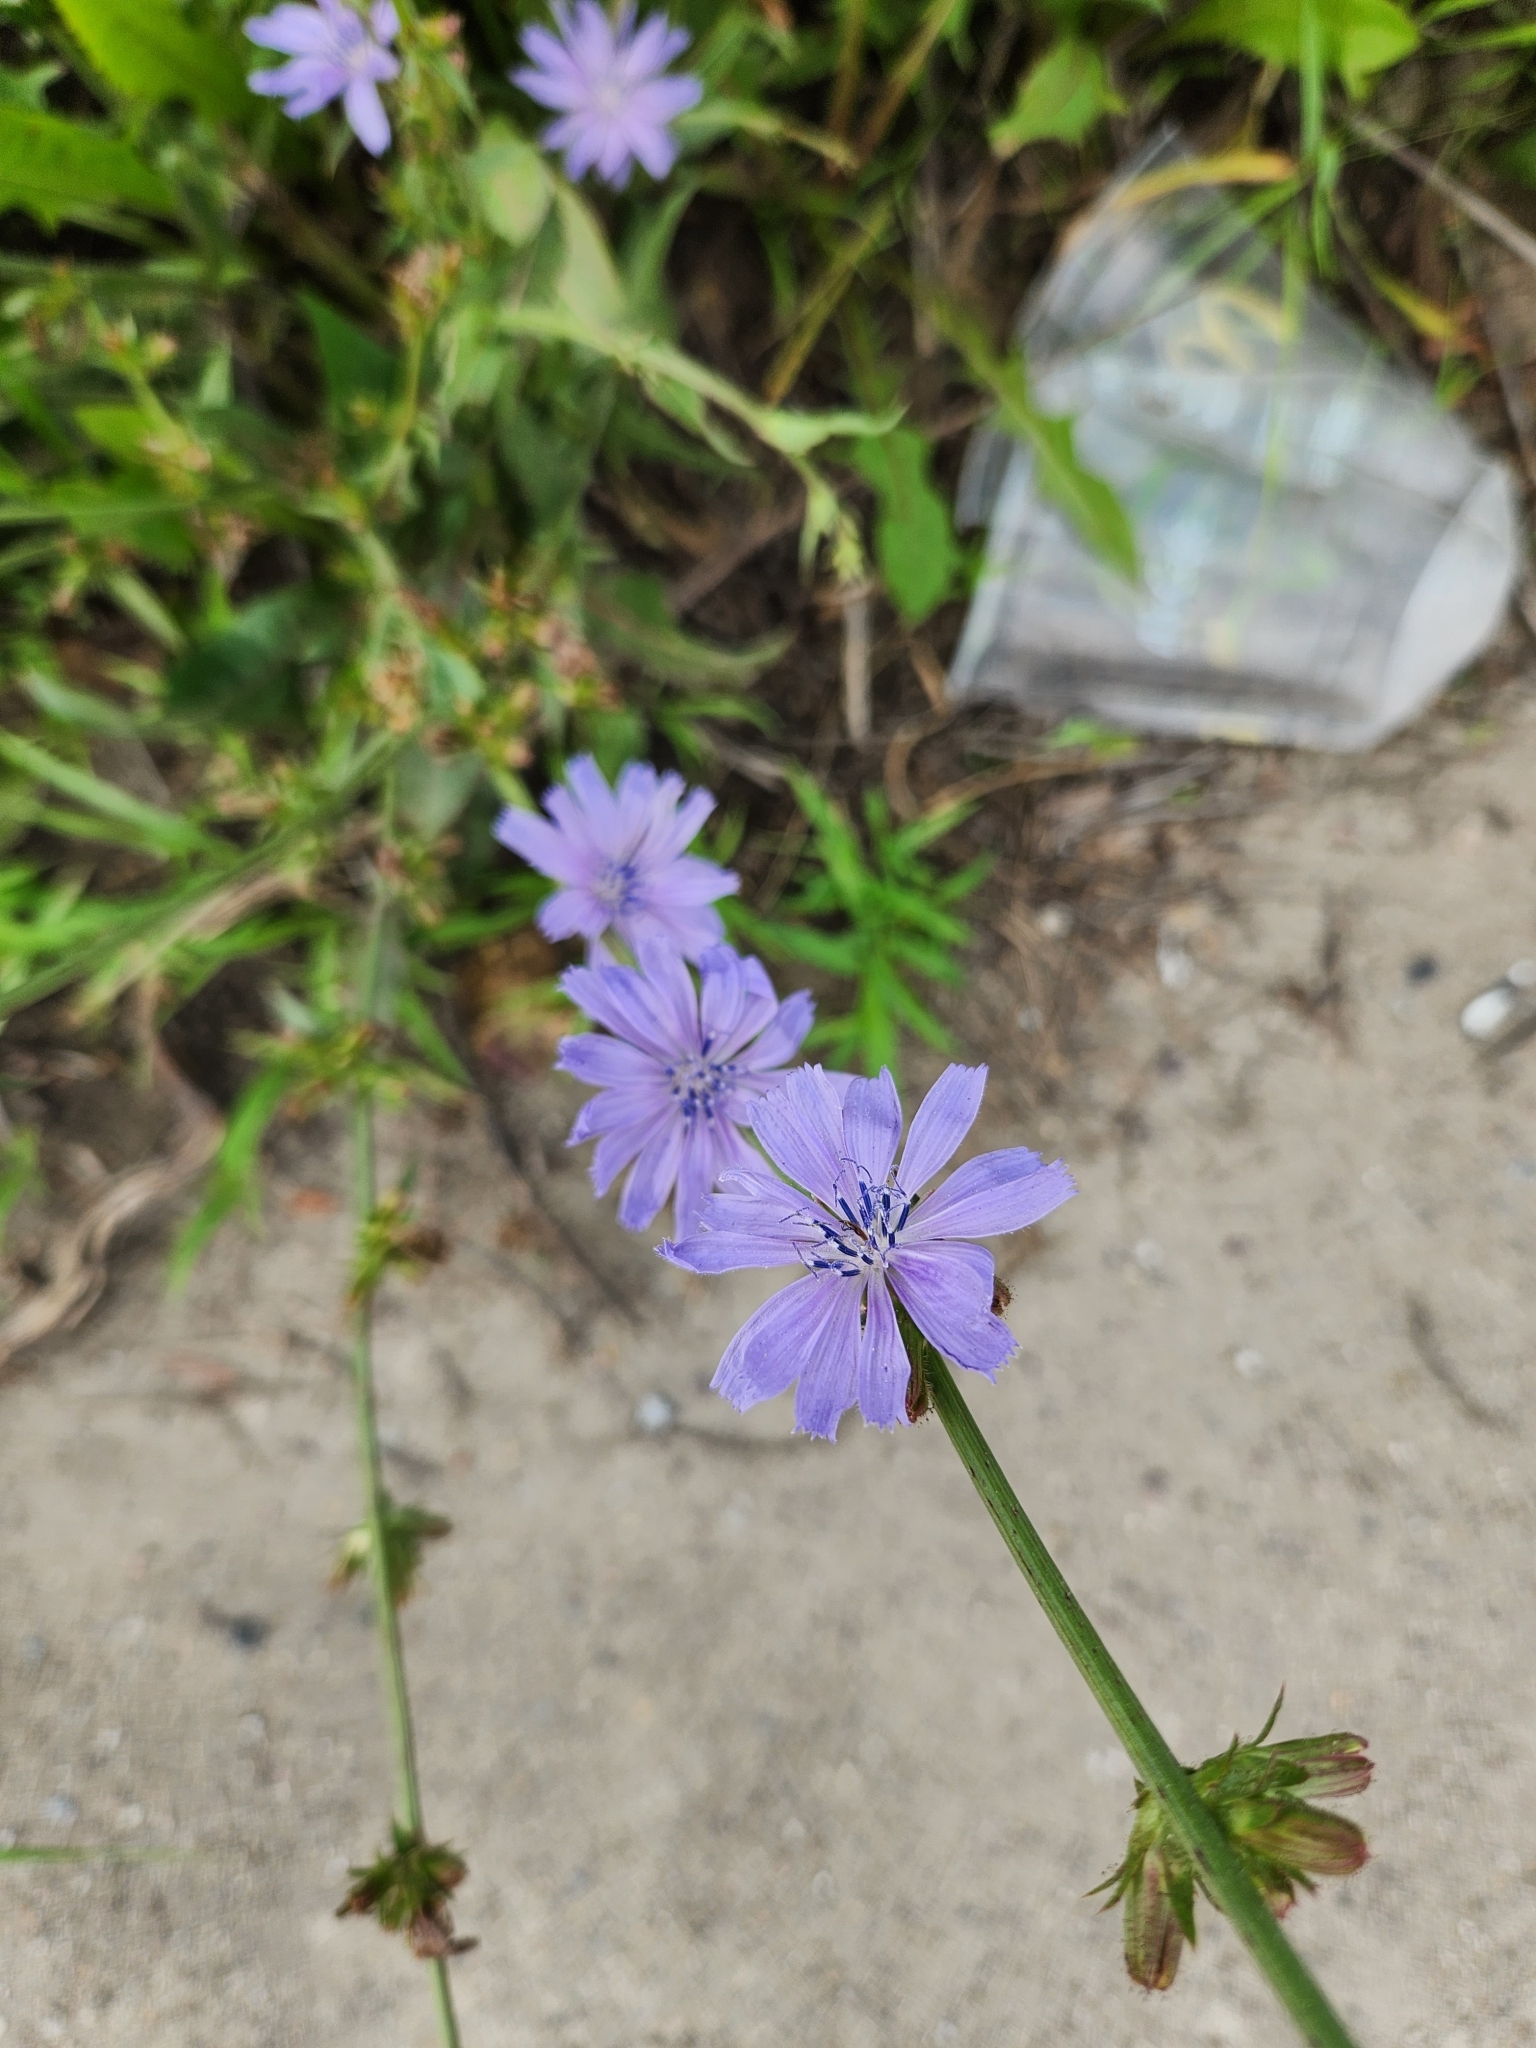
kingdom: Plantae
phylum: Tracheophyta
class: Magnoliopsida
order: Asterales
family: Asteraceae
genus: Cichorium
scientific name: Cichorium intybus
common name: Chicory
